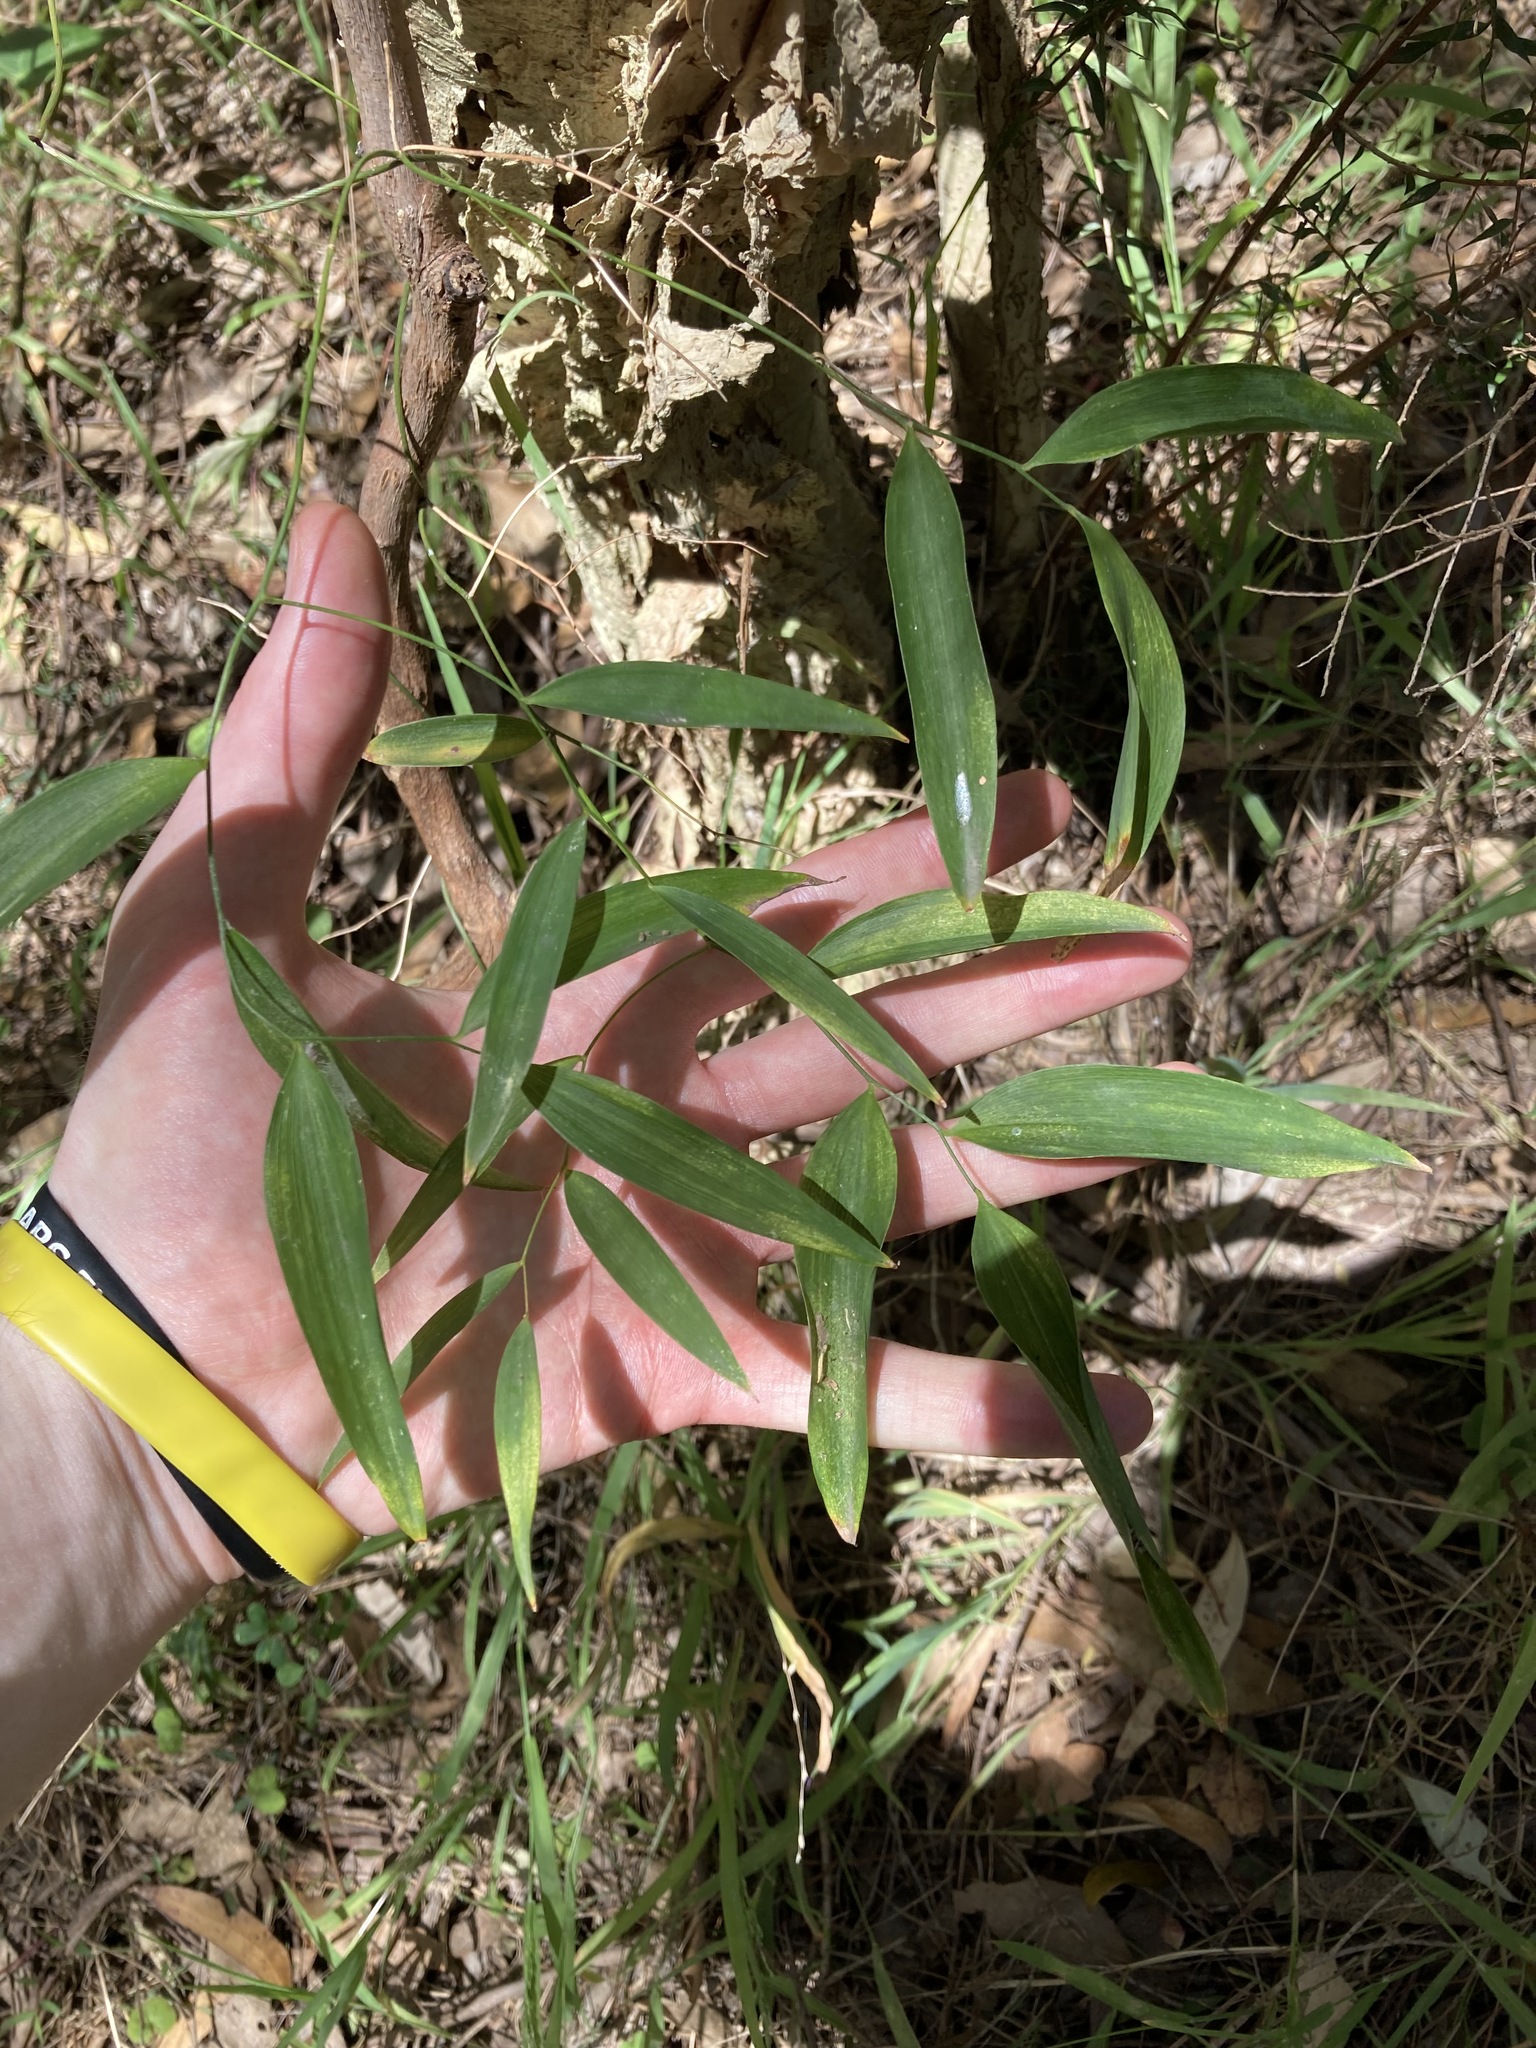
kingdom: Plantae
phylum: Tracheophyta
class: Liliopsida
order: Asparagales
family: Asparagaceae
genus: Eustrephus
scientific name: Eustrephus latifolius
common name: Orangevine
